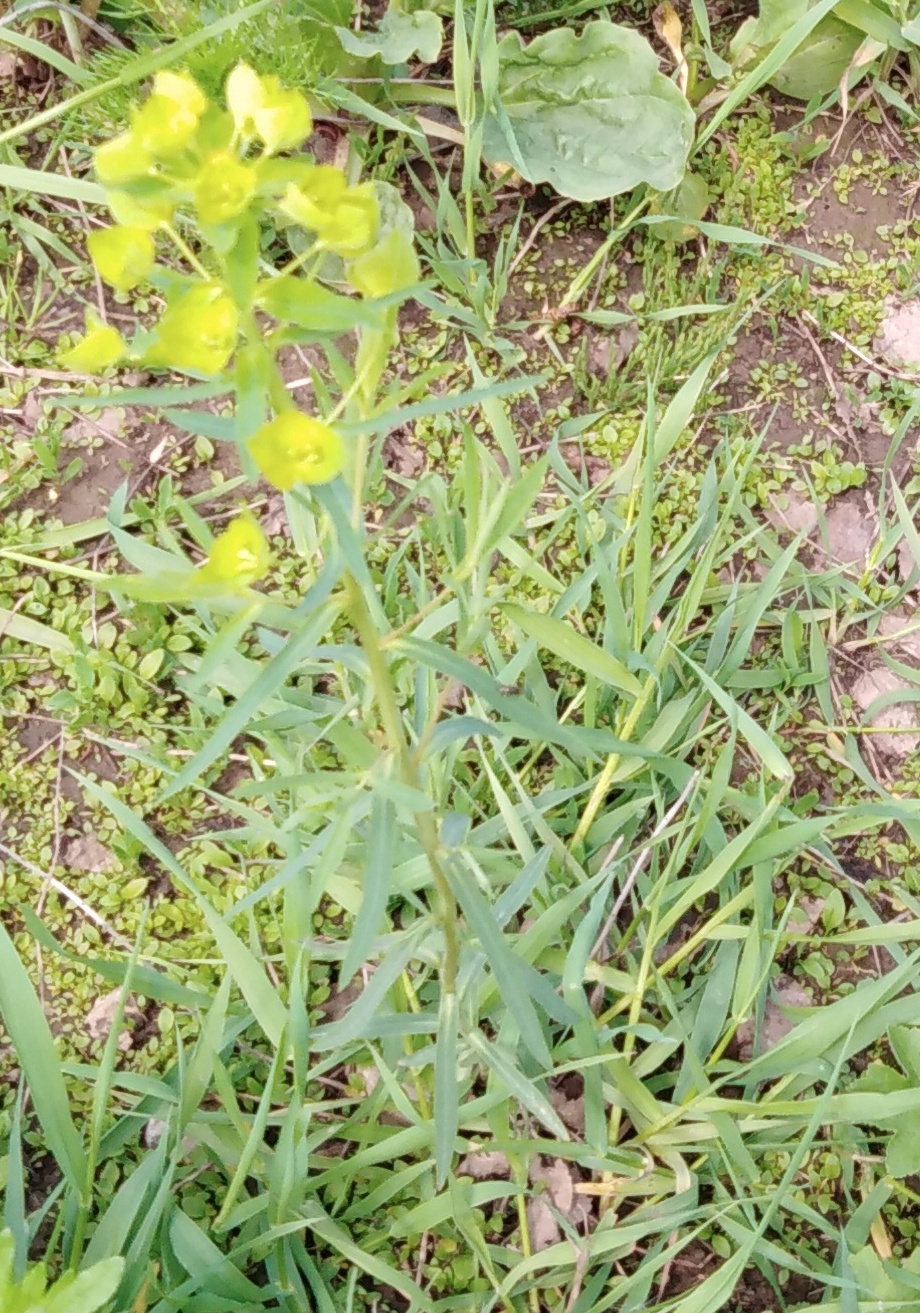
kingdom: Plantae
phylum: Tracheophyta
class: Magnoliopsida
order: Malpighiales
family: Euphorbiaceae
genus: Euphorbia
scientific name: Euphorbia virgata
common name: Leafy spurge
